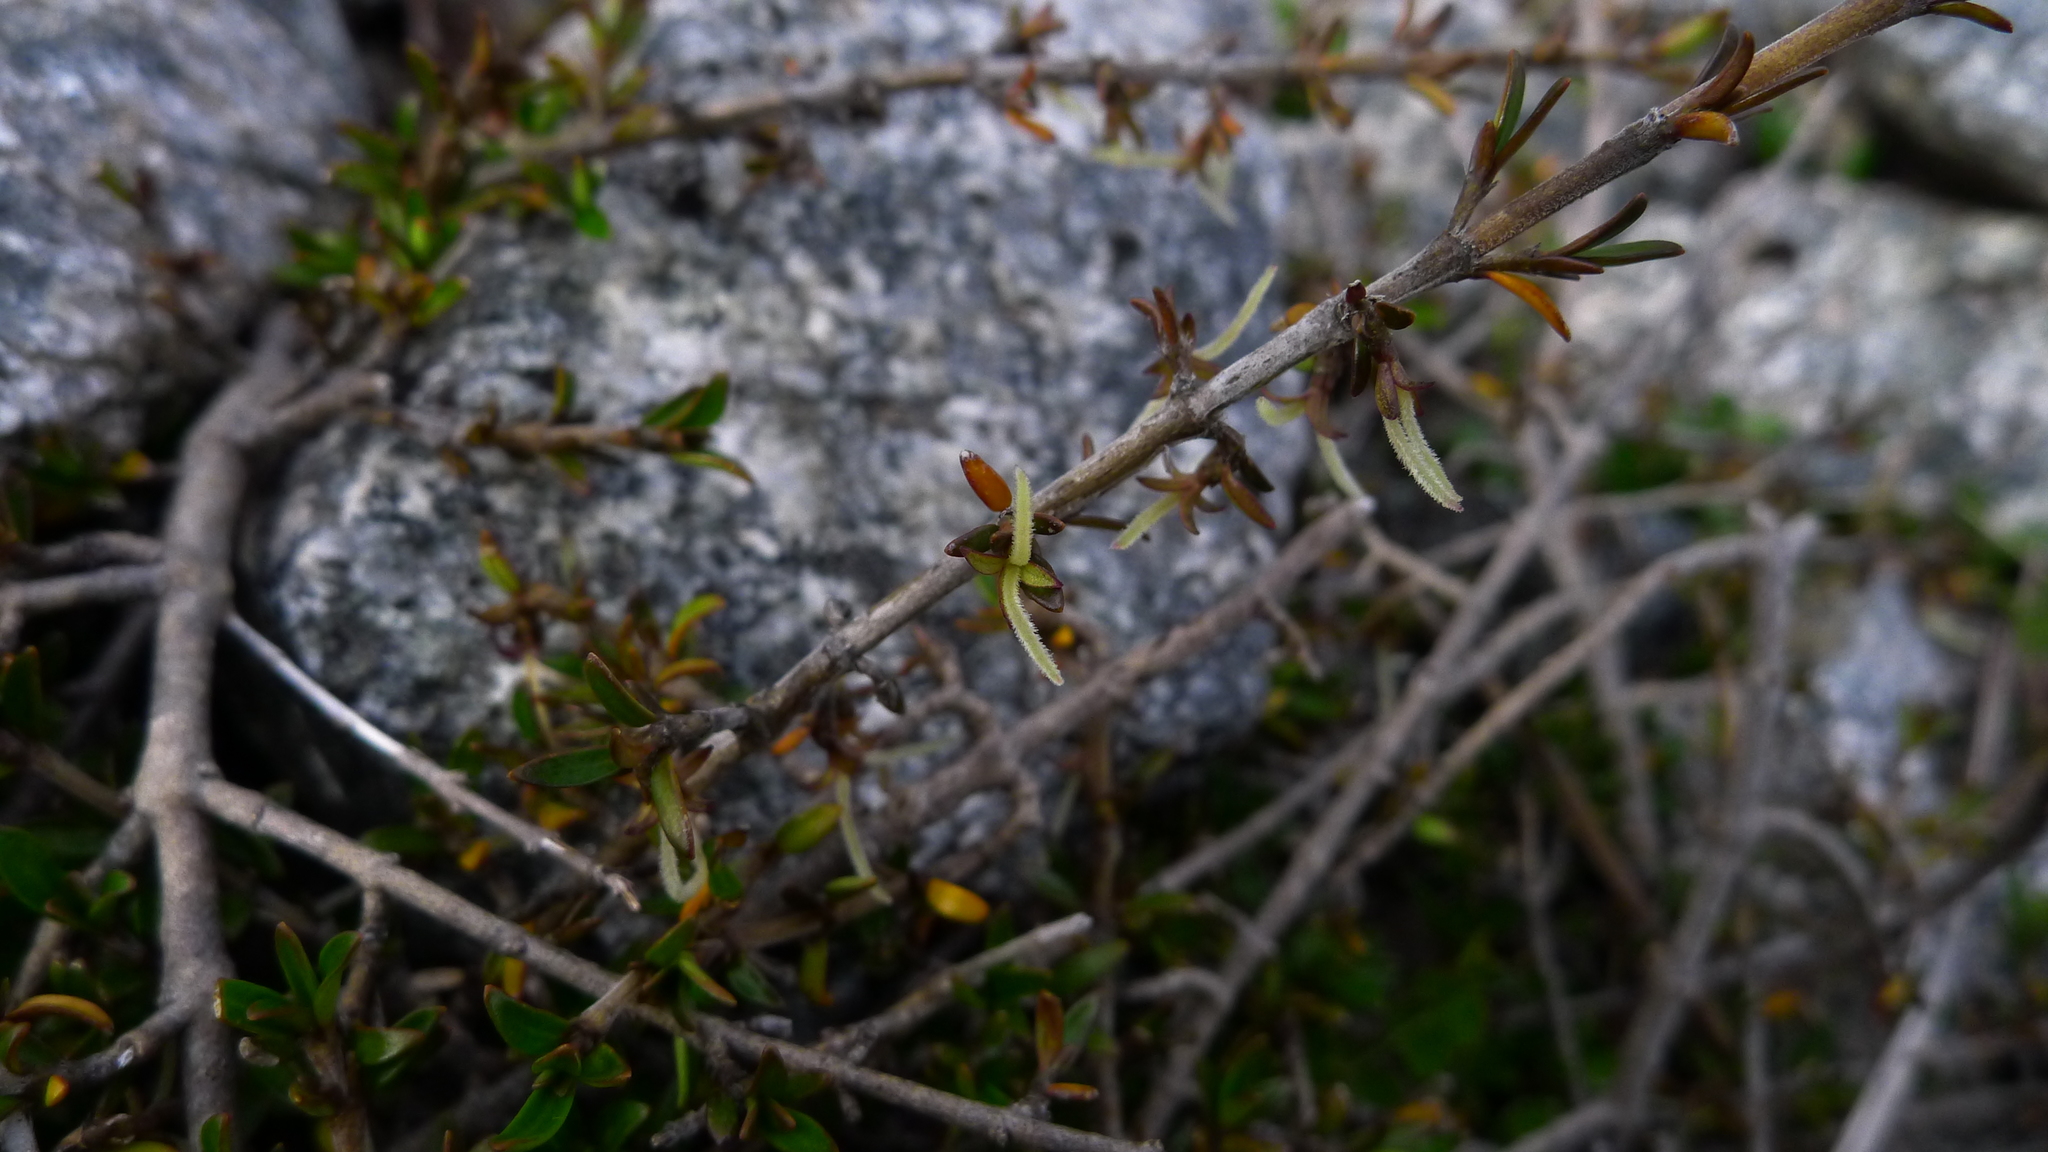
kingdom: Plantae
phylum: Tracheophyta
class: Magnoliopsida
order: Gentianales
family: Rubiaceae
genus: Coprosma
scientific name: Coprosma cheesemanii
